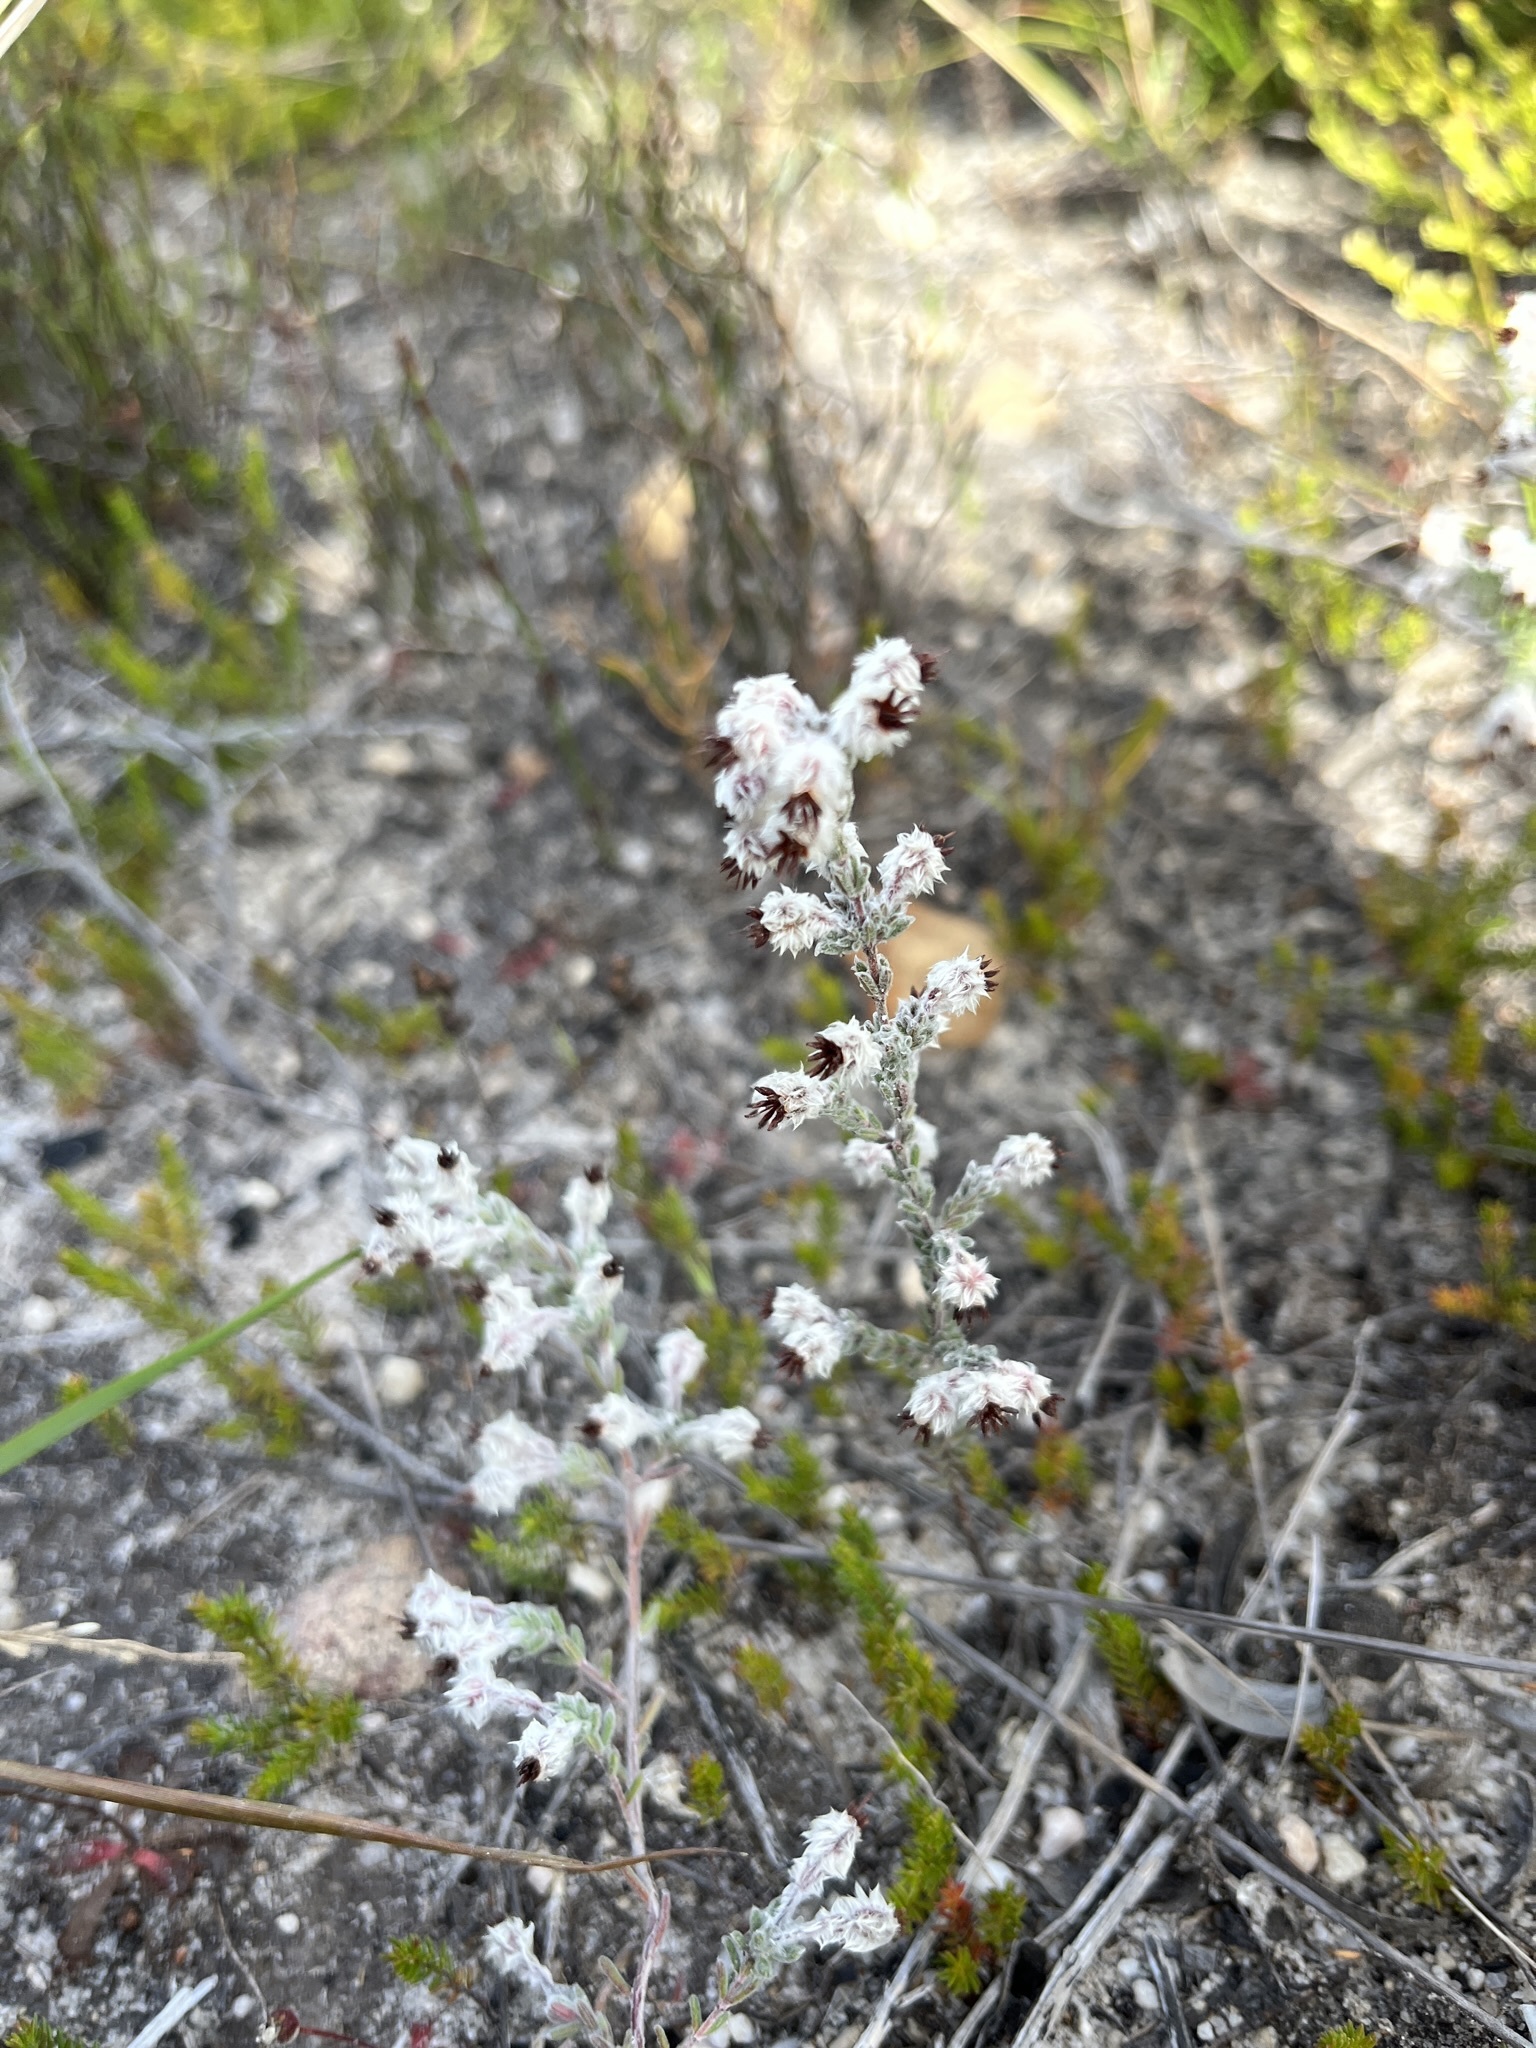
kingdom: Plantae
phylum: Tracheophyta
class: Magnoliopsida
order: Ericales
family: Ericaceae
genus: Erica
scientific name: Erica bruniades
